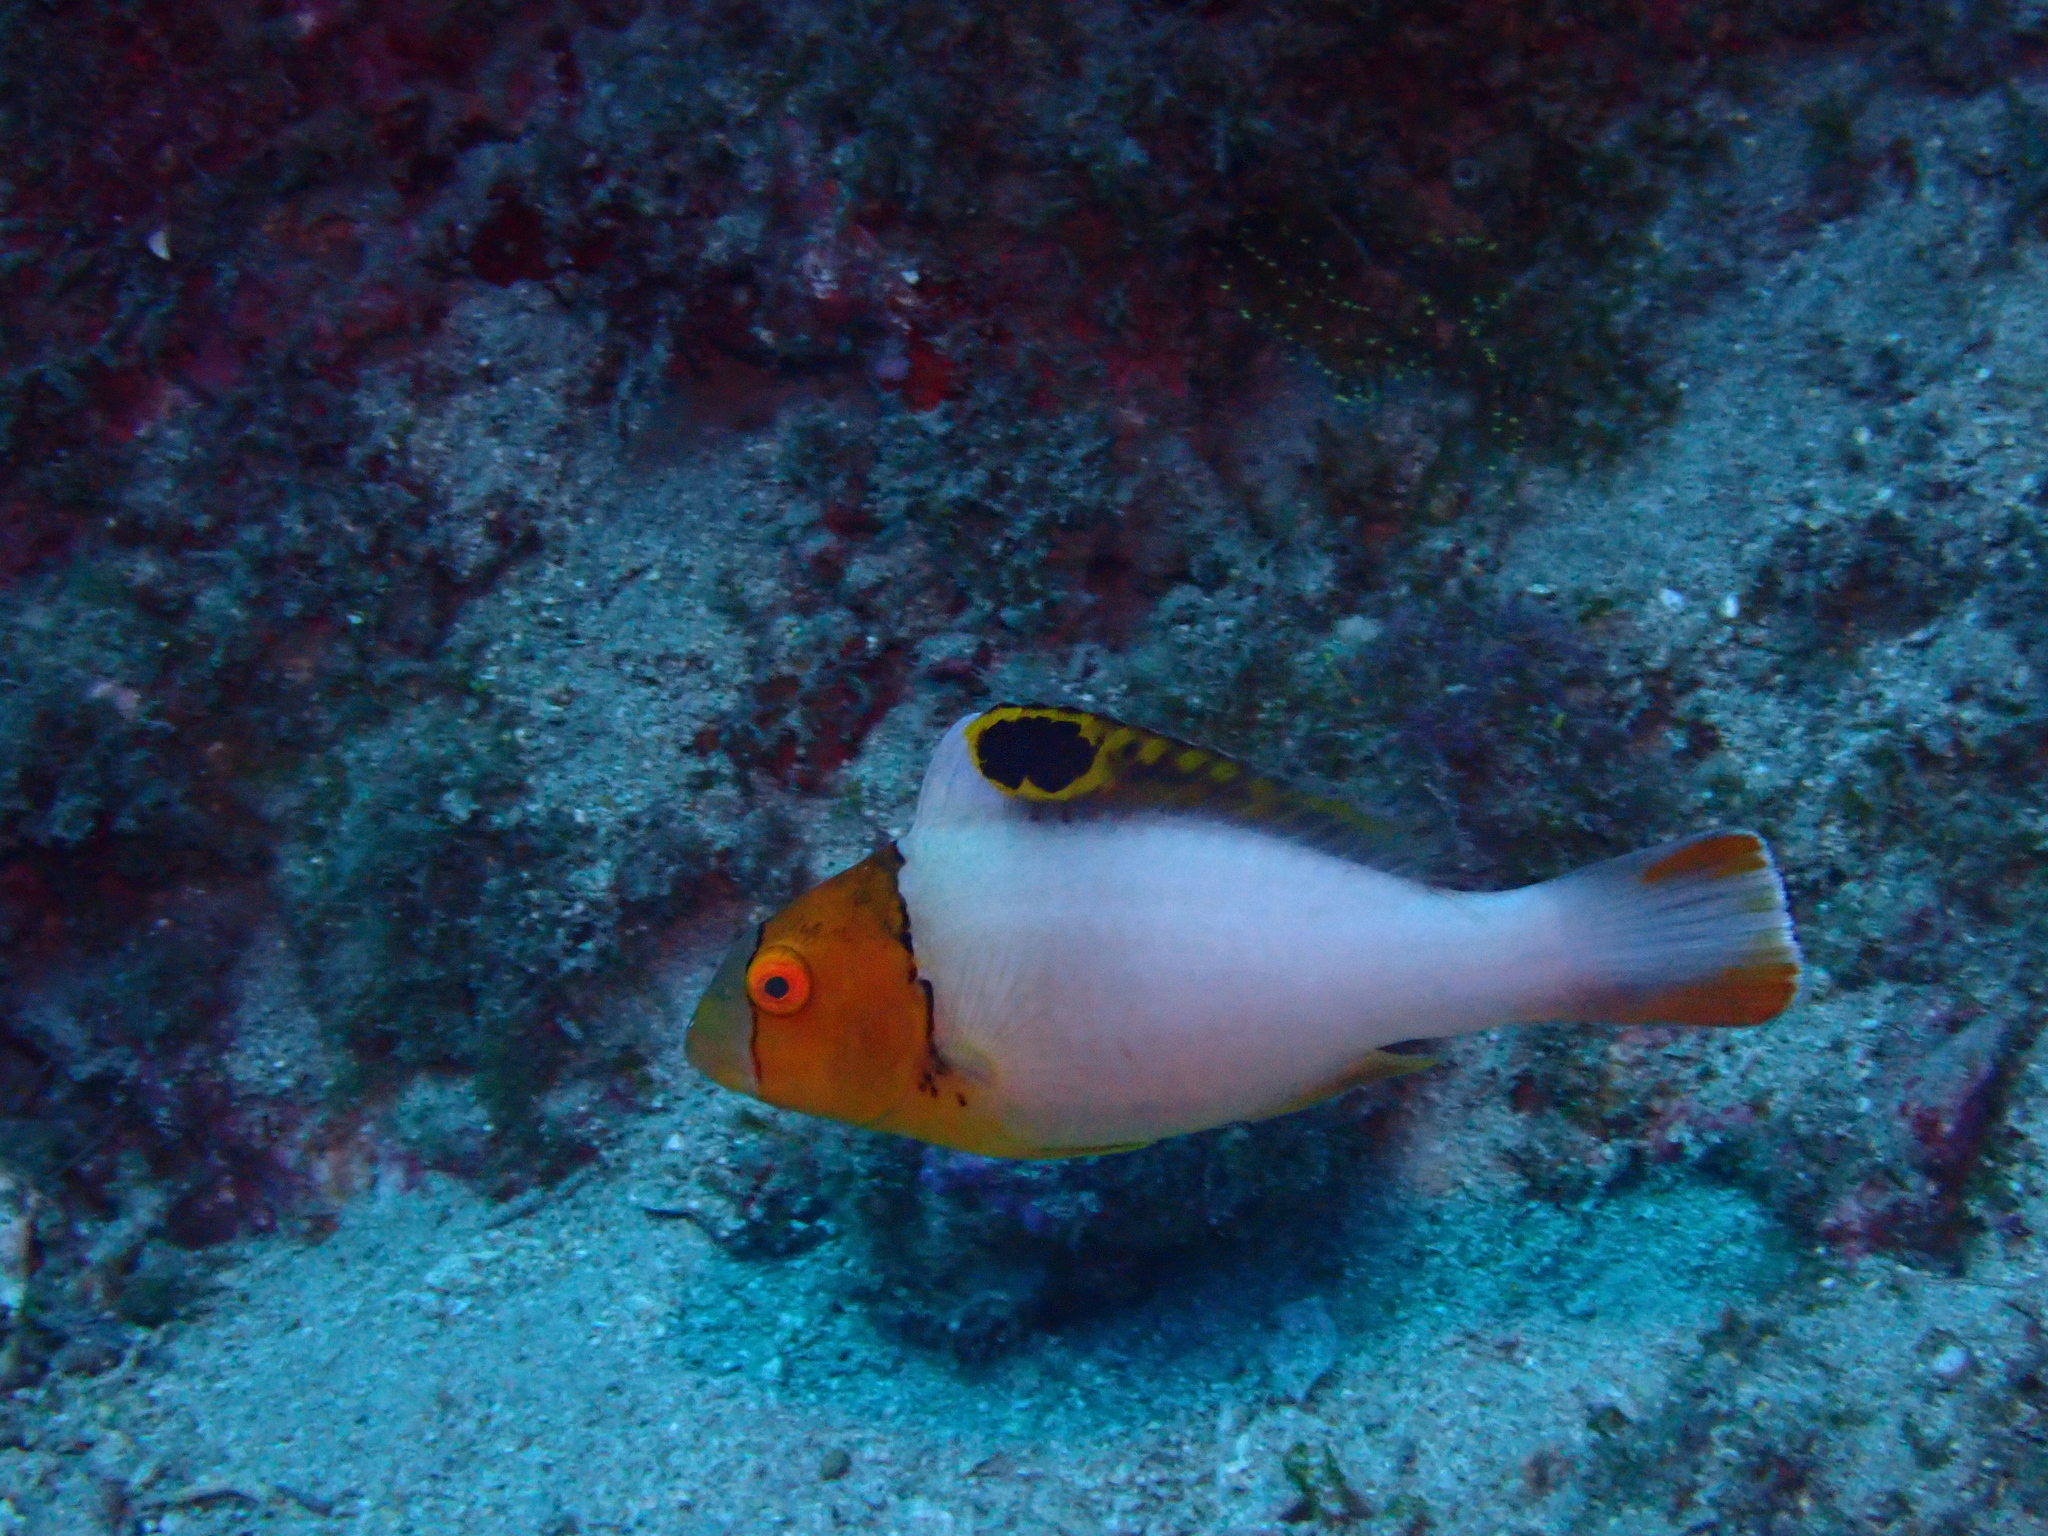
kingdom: Animalia
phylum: Chordata
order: Perciformes
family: Scaridae
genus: Cetoscarus
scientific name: Cetoscarus ocellatus
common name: Bicolor parrotfish
